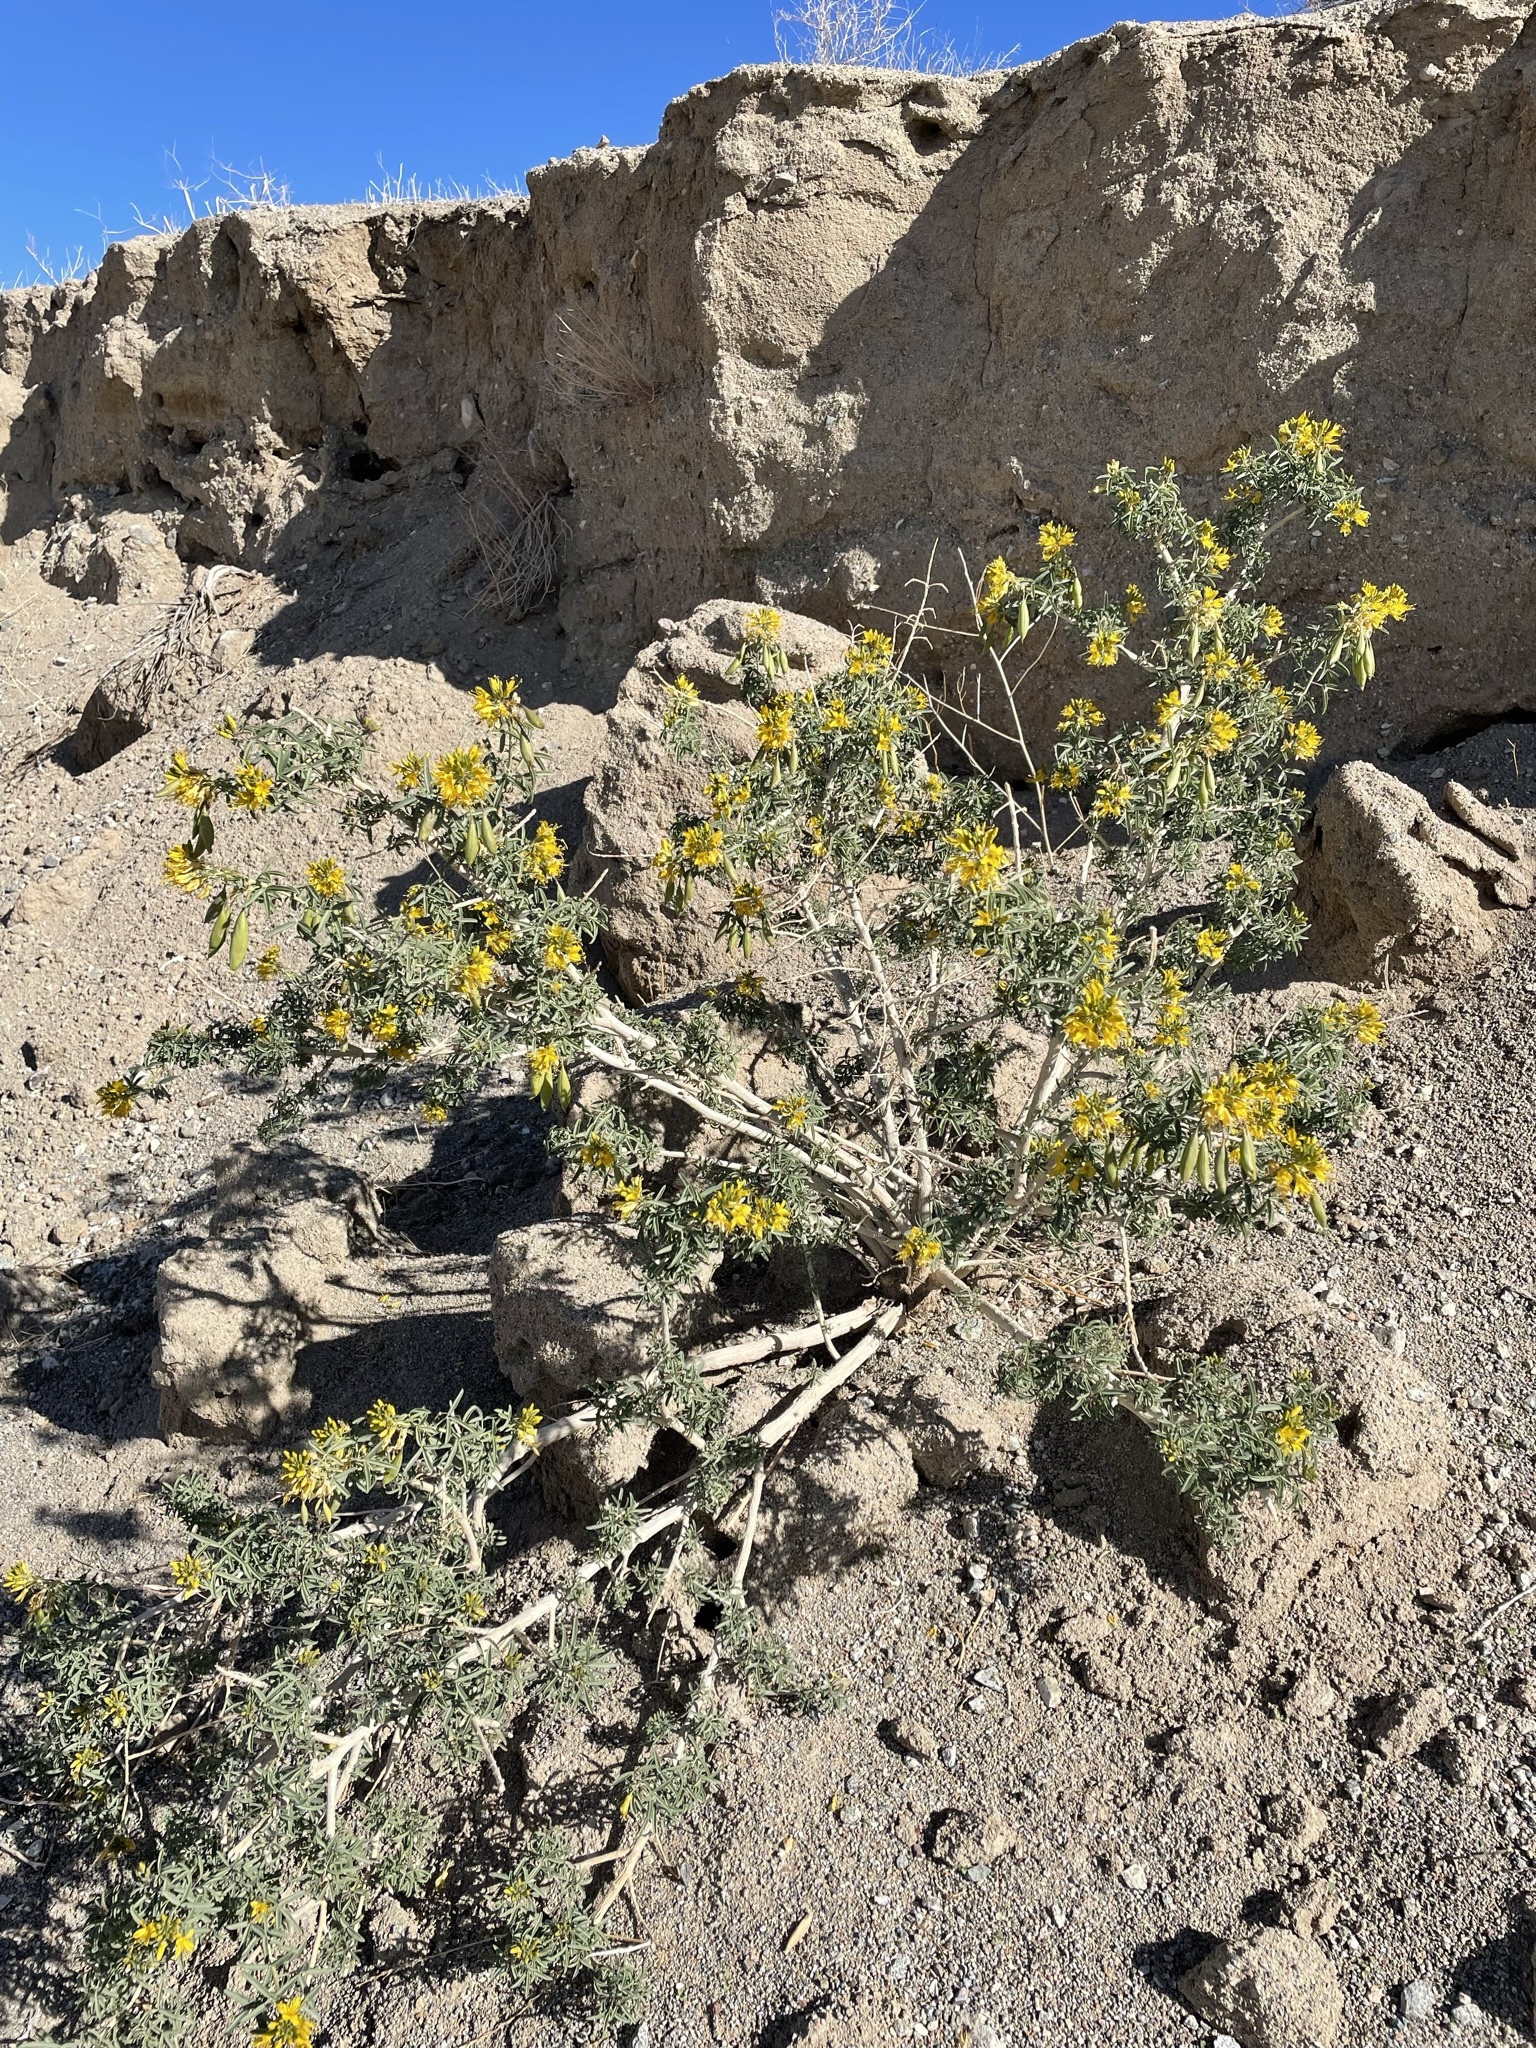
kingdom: Plantae
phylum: Tracheophyta
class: Magnoliopsida
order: Brassicales
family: Cleomaceae
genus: Cleomella
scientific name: Cleomella arborea
